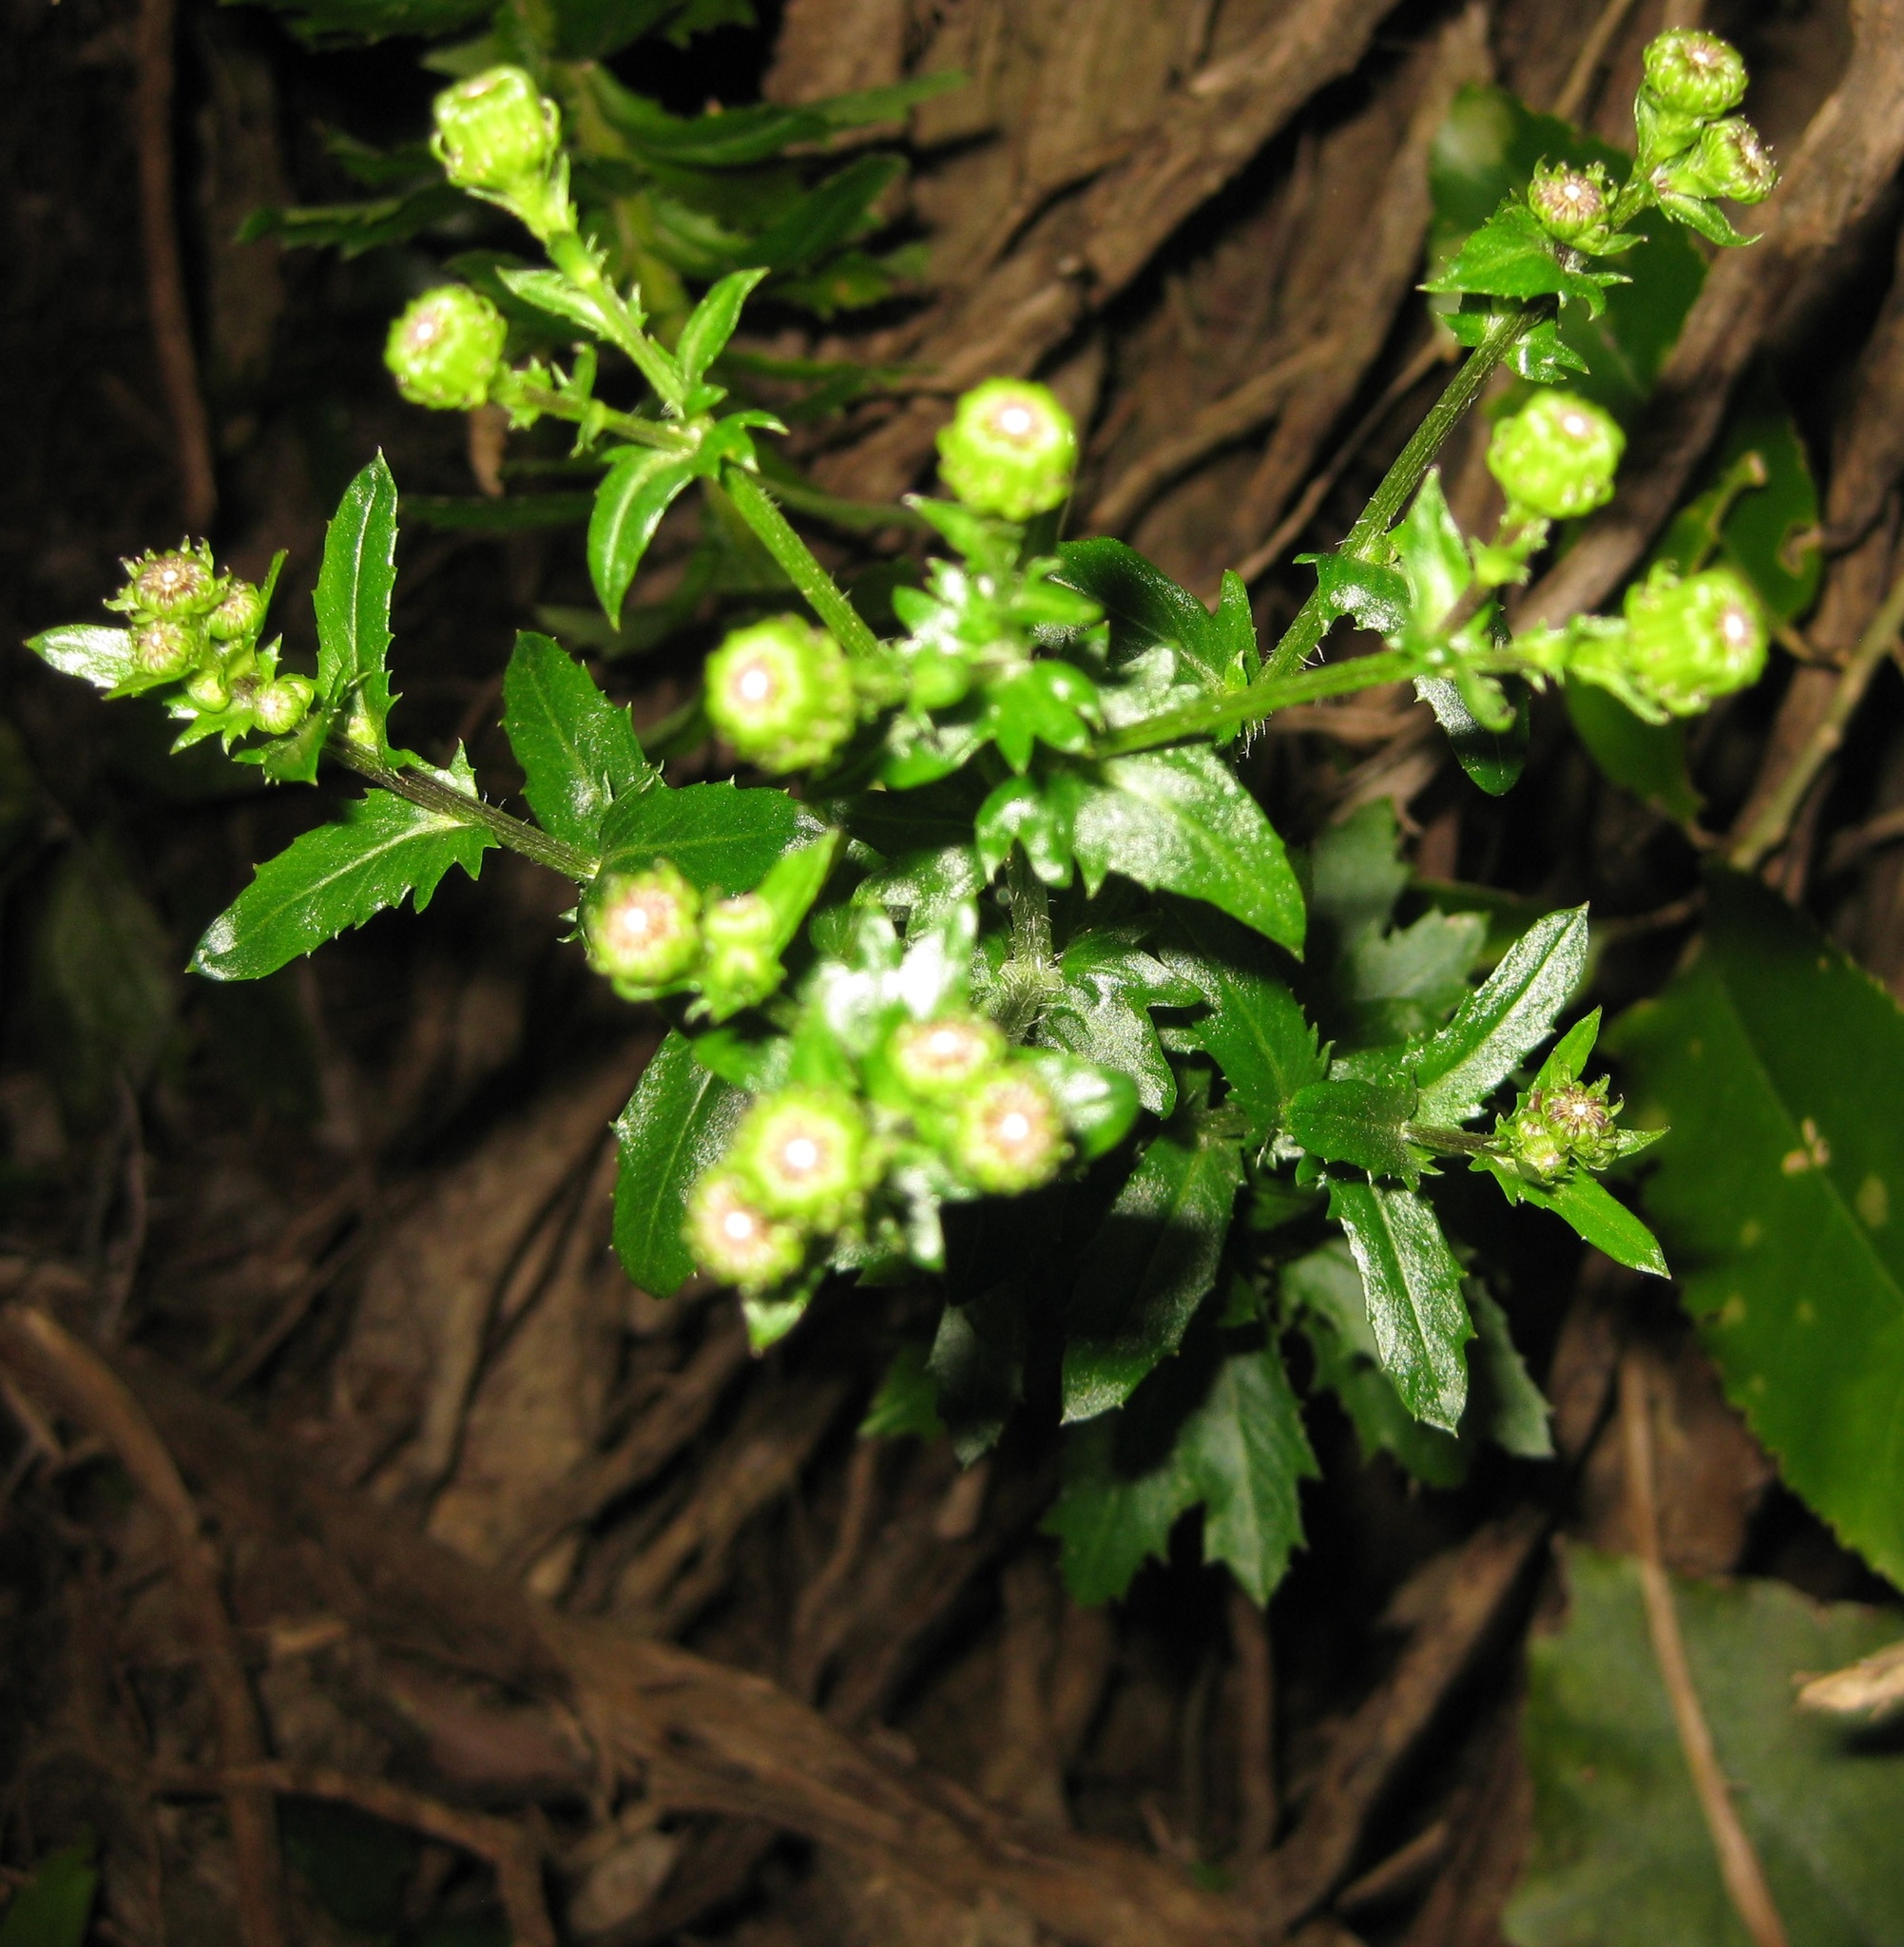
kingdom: Plantae
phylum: Tracheophyta
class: Magnoliopsida
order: Asterales
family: Asteraceae
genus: Senecio
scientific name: Senecio glastifolius
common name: Woad-leaved ragwort
